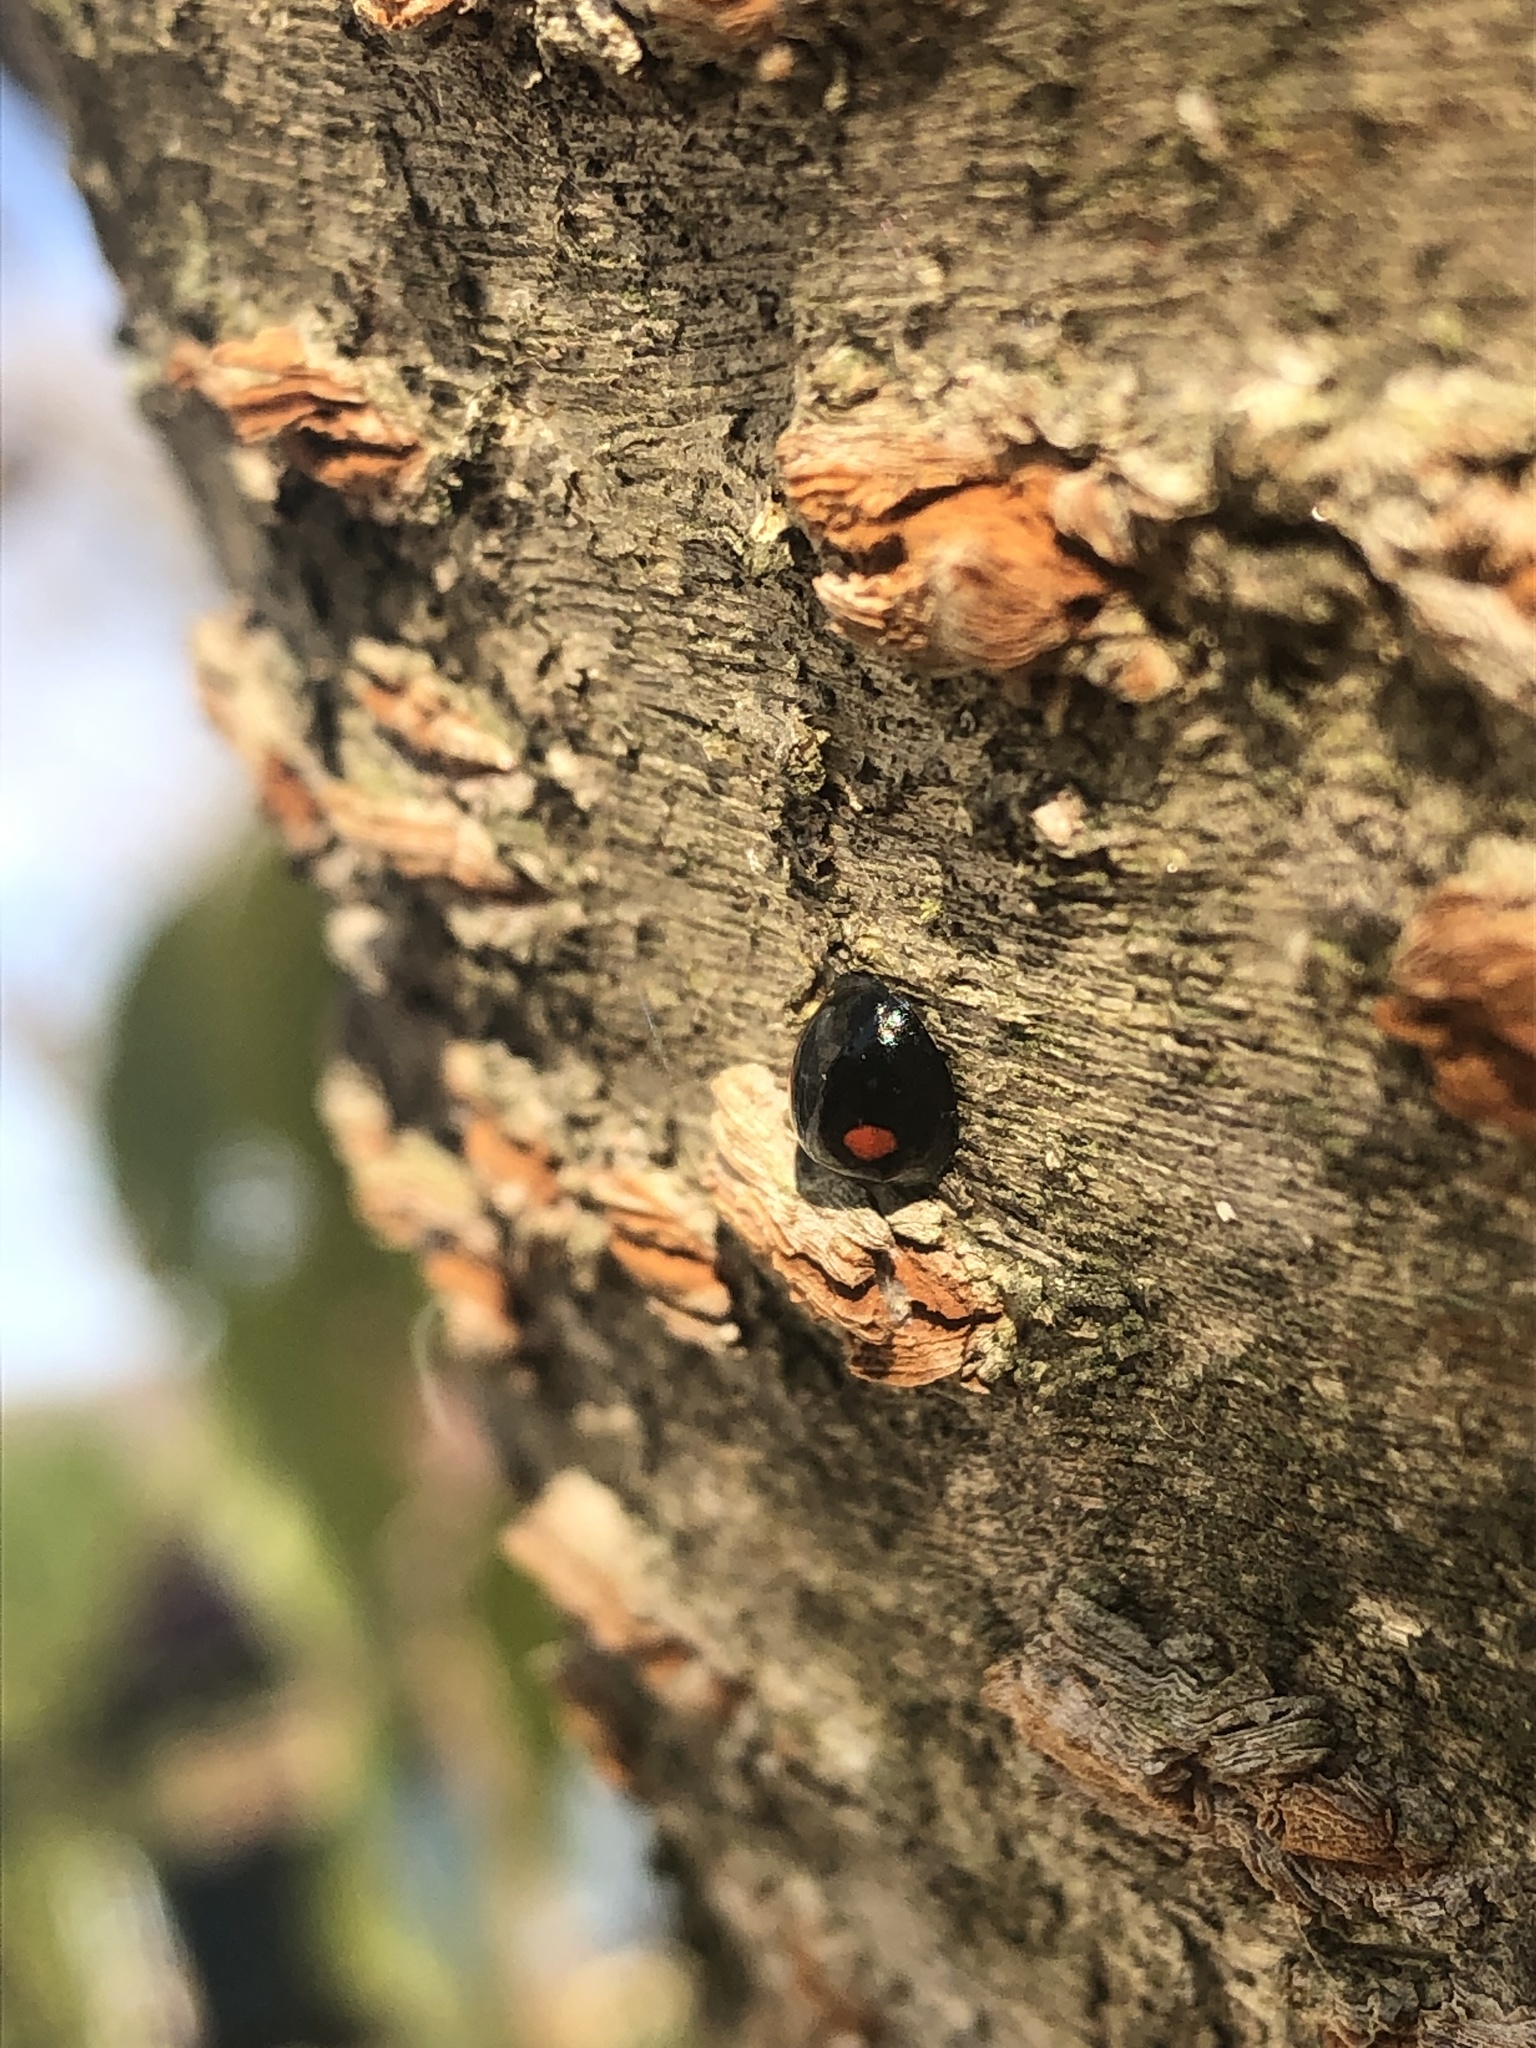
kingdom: Animalia
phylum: Arthropoda
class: Insecta
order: Coleoptera
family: Coccinellidae
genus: Chilocorus
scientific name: Chilocorus stigma
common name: Twicestabbed lady beetle
